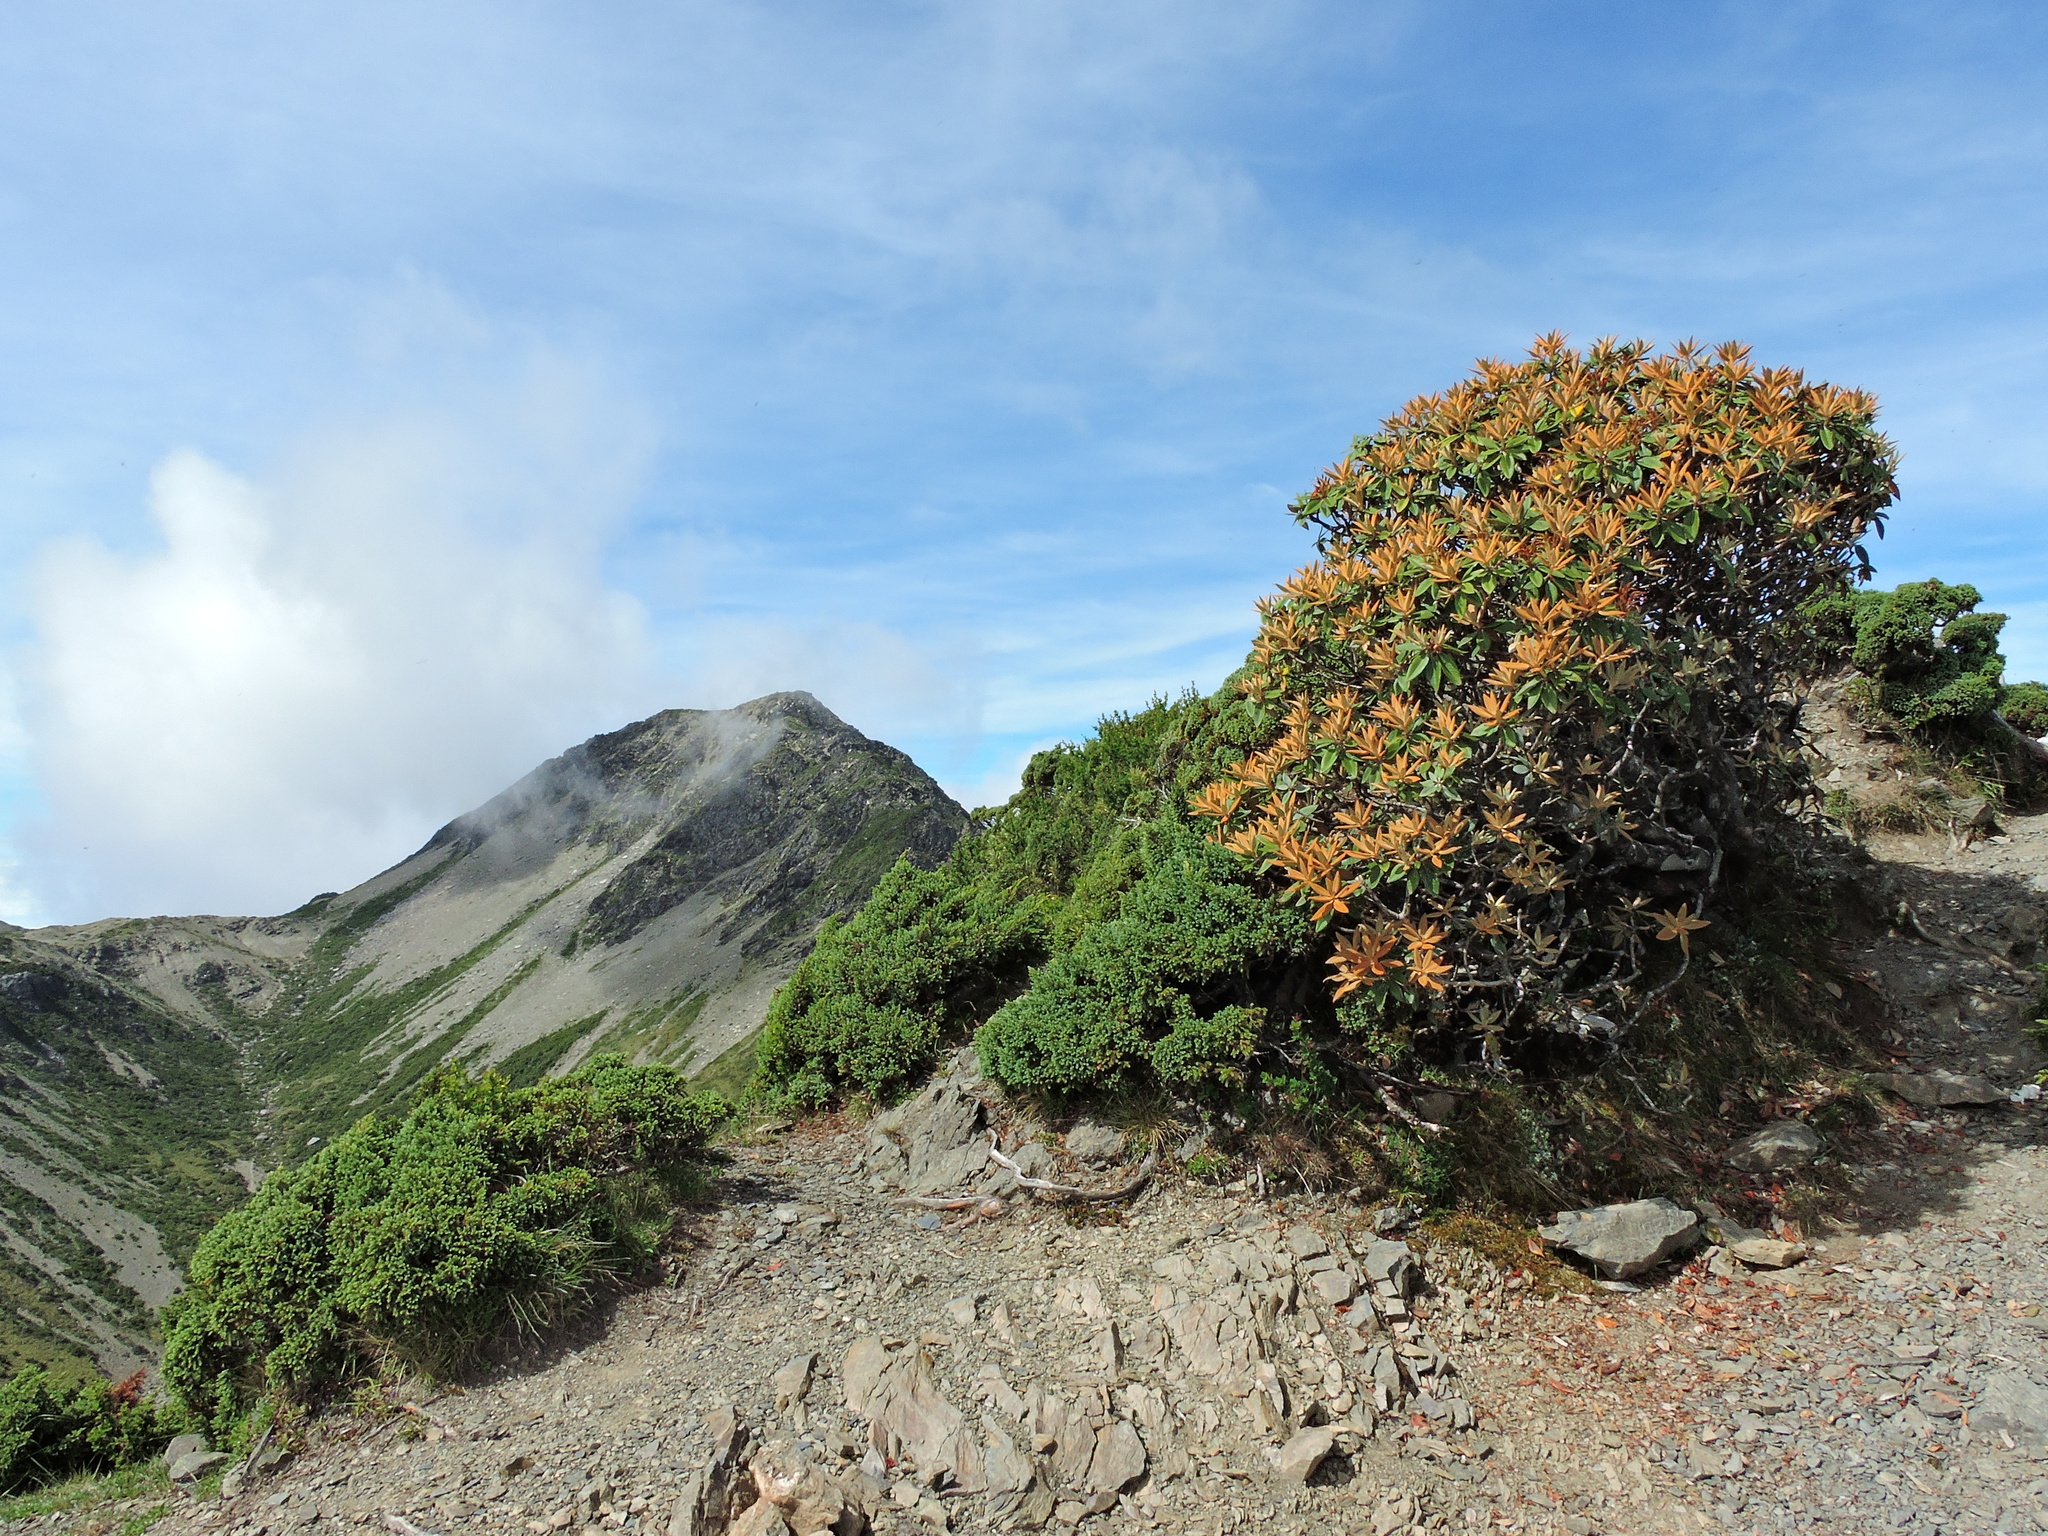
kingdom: Plantae
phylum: Tracheophyta
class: Magnoliopsida
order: Ericales
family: Ericaceae
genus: Rhododendron
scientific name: Rhododendron hyperythrum
